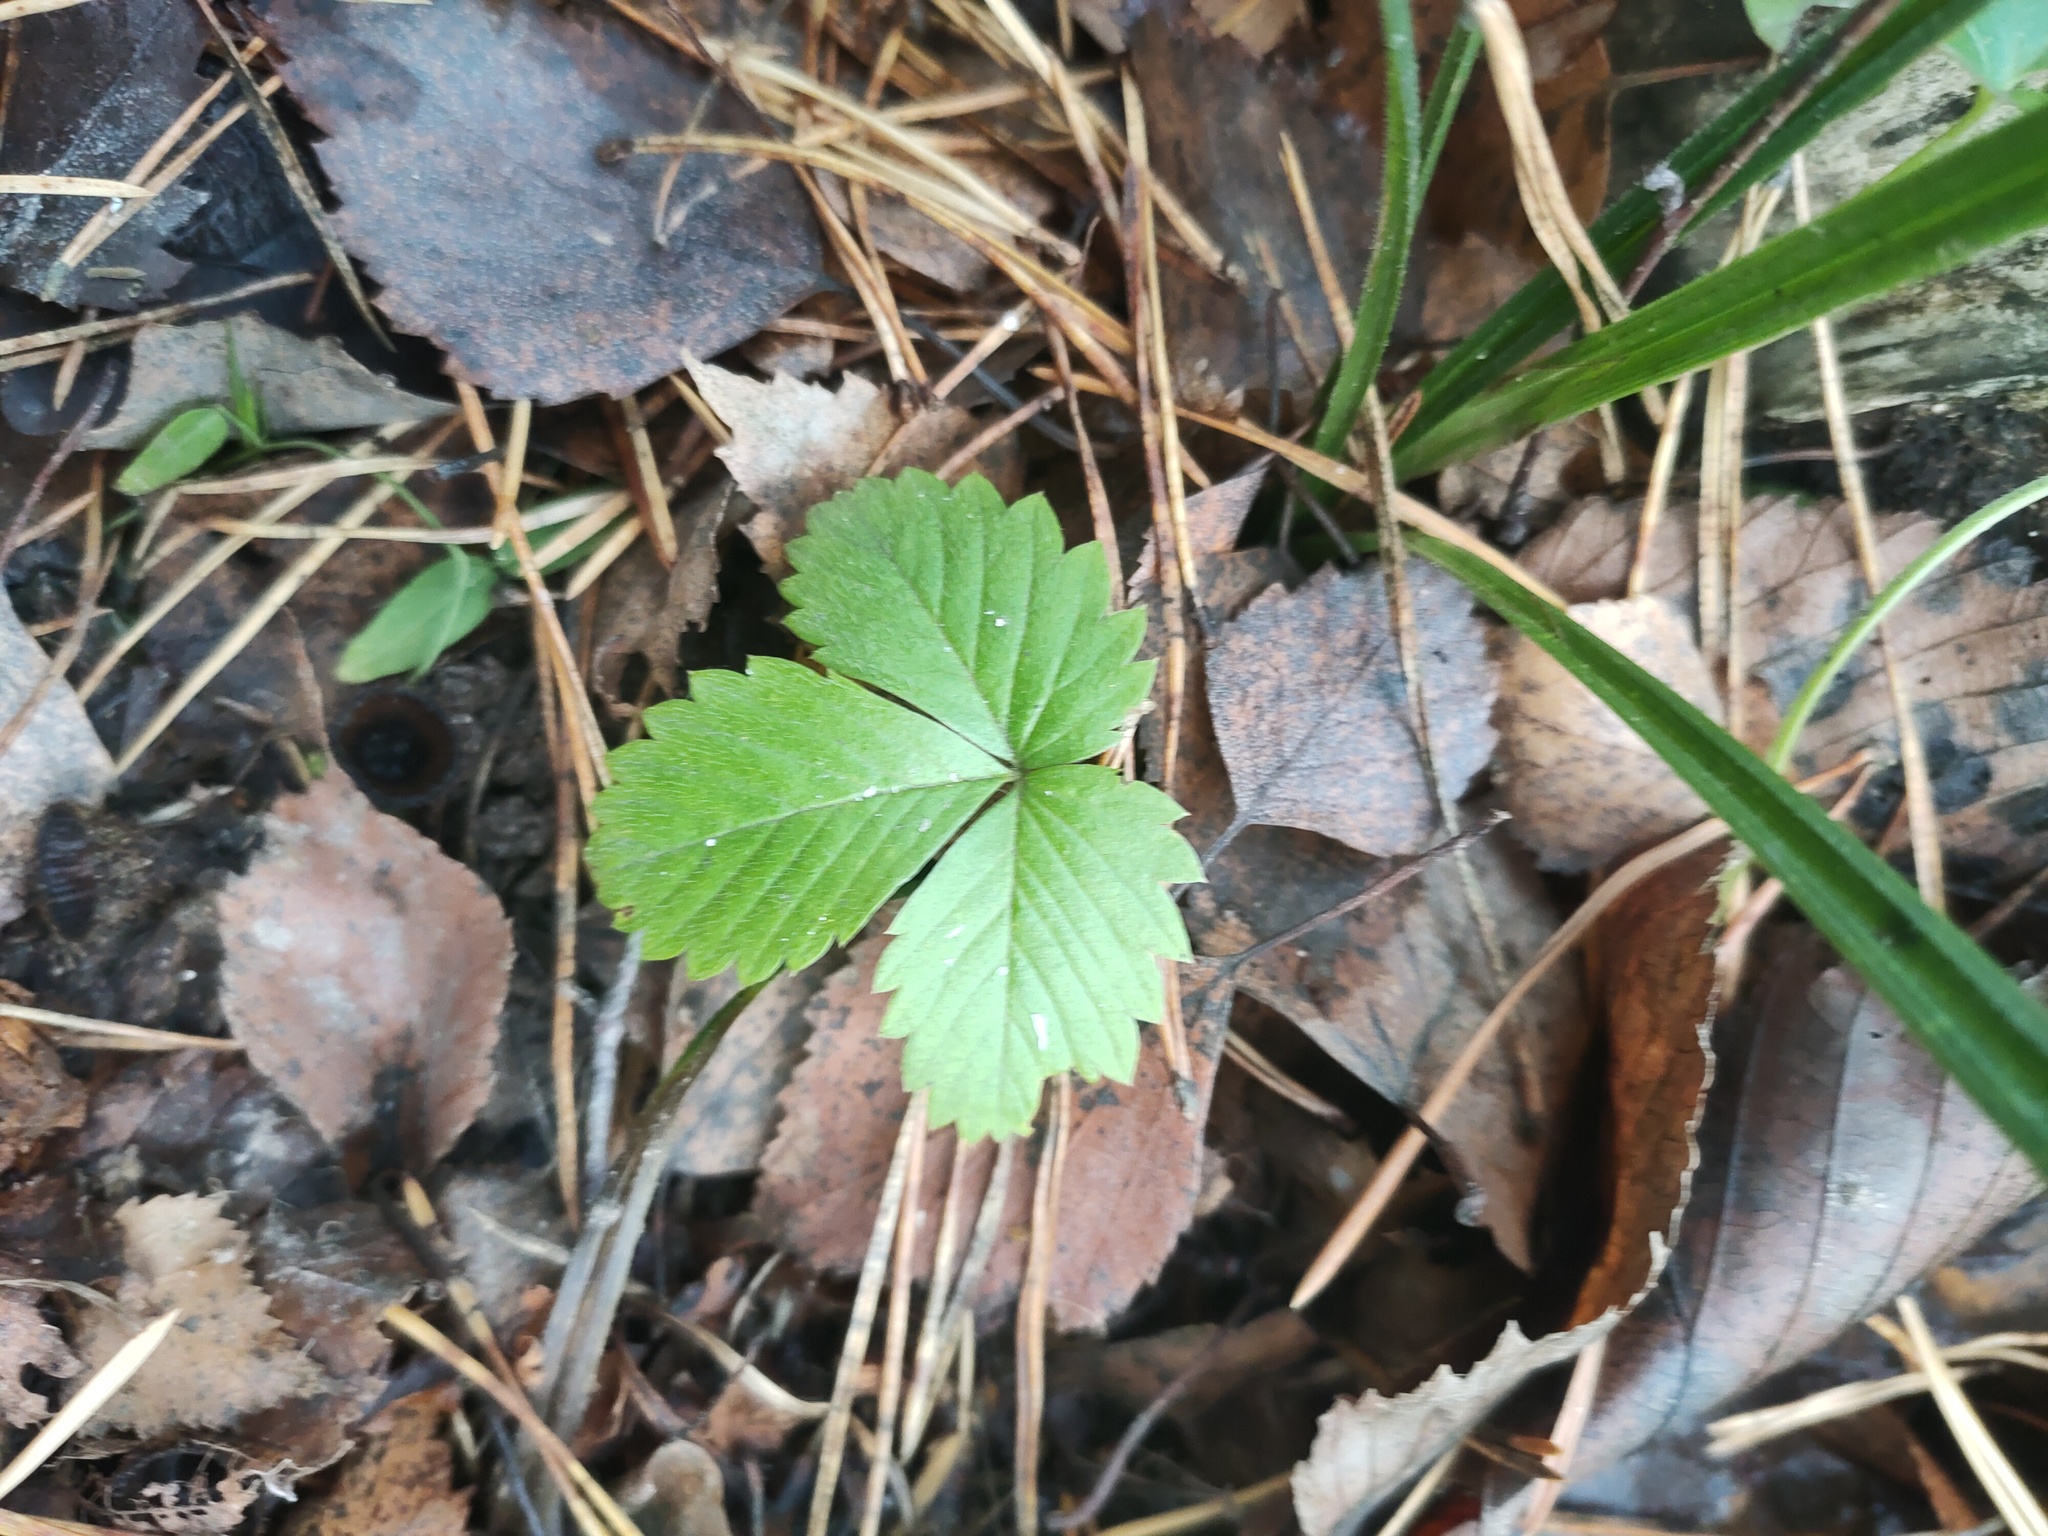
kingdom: Plantae
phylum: Tracheophyta
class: Magnoliopsida
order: Rosales
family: Rosaceae
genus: Fragaria
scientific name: Fragaria vesca
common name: Wild strawberry
